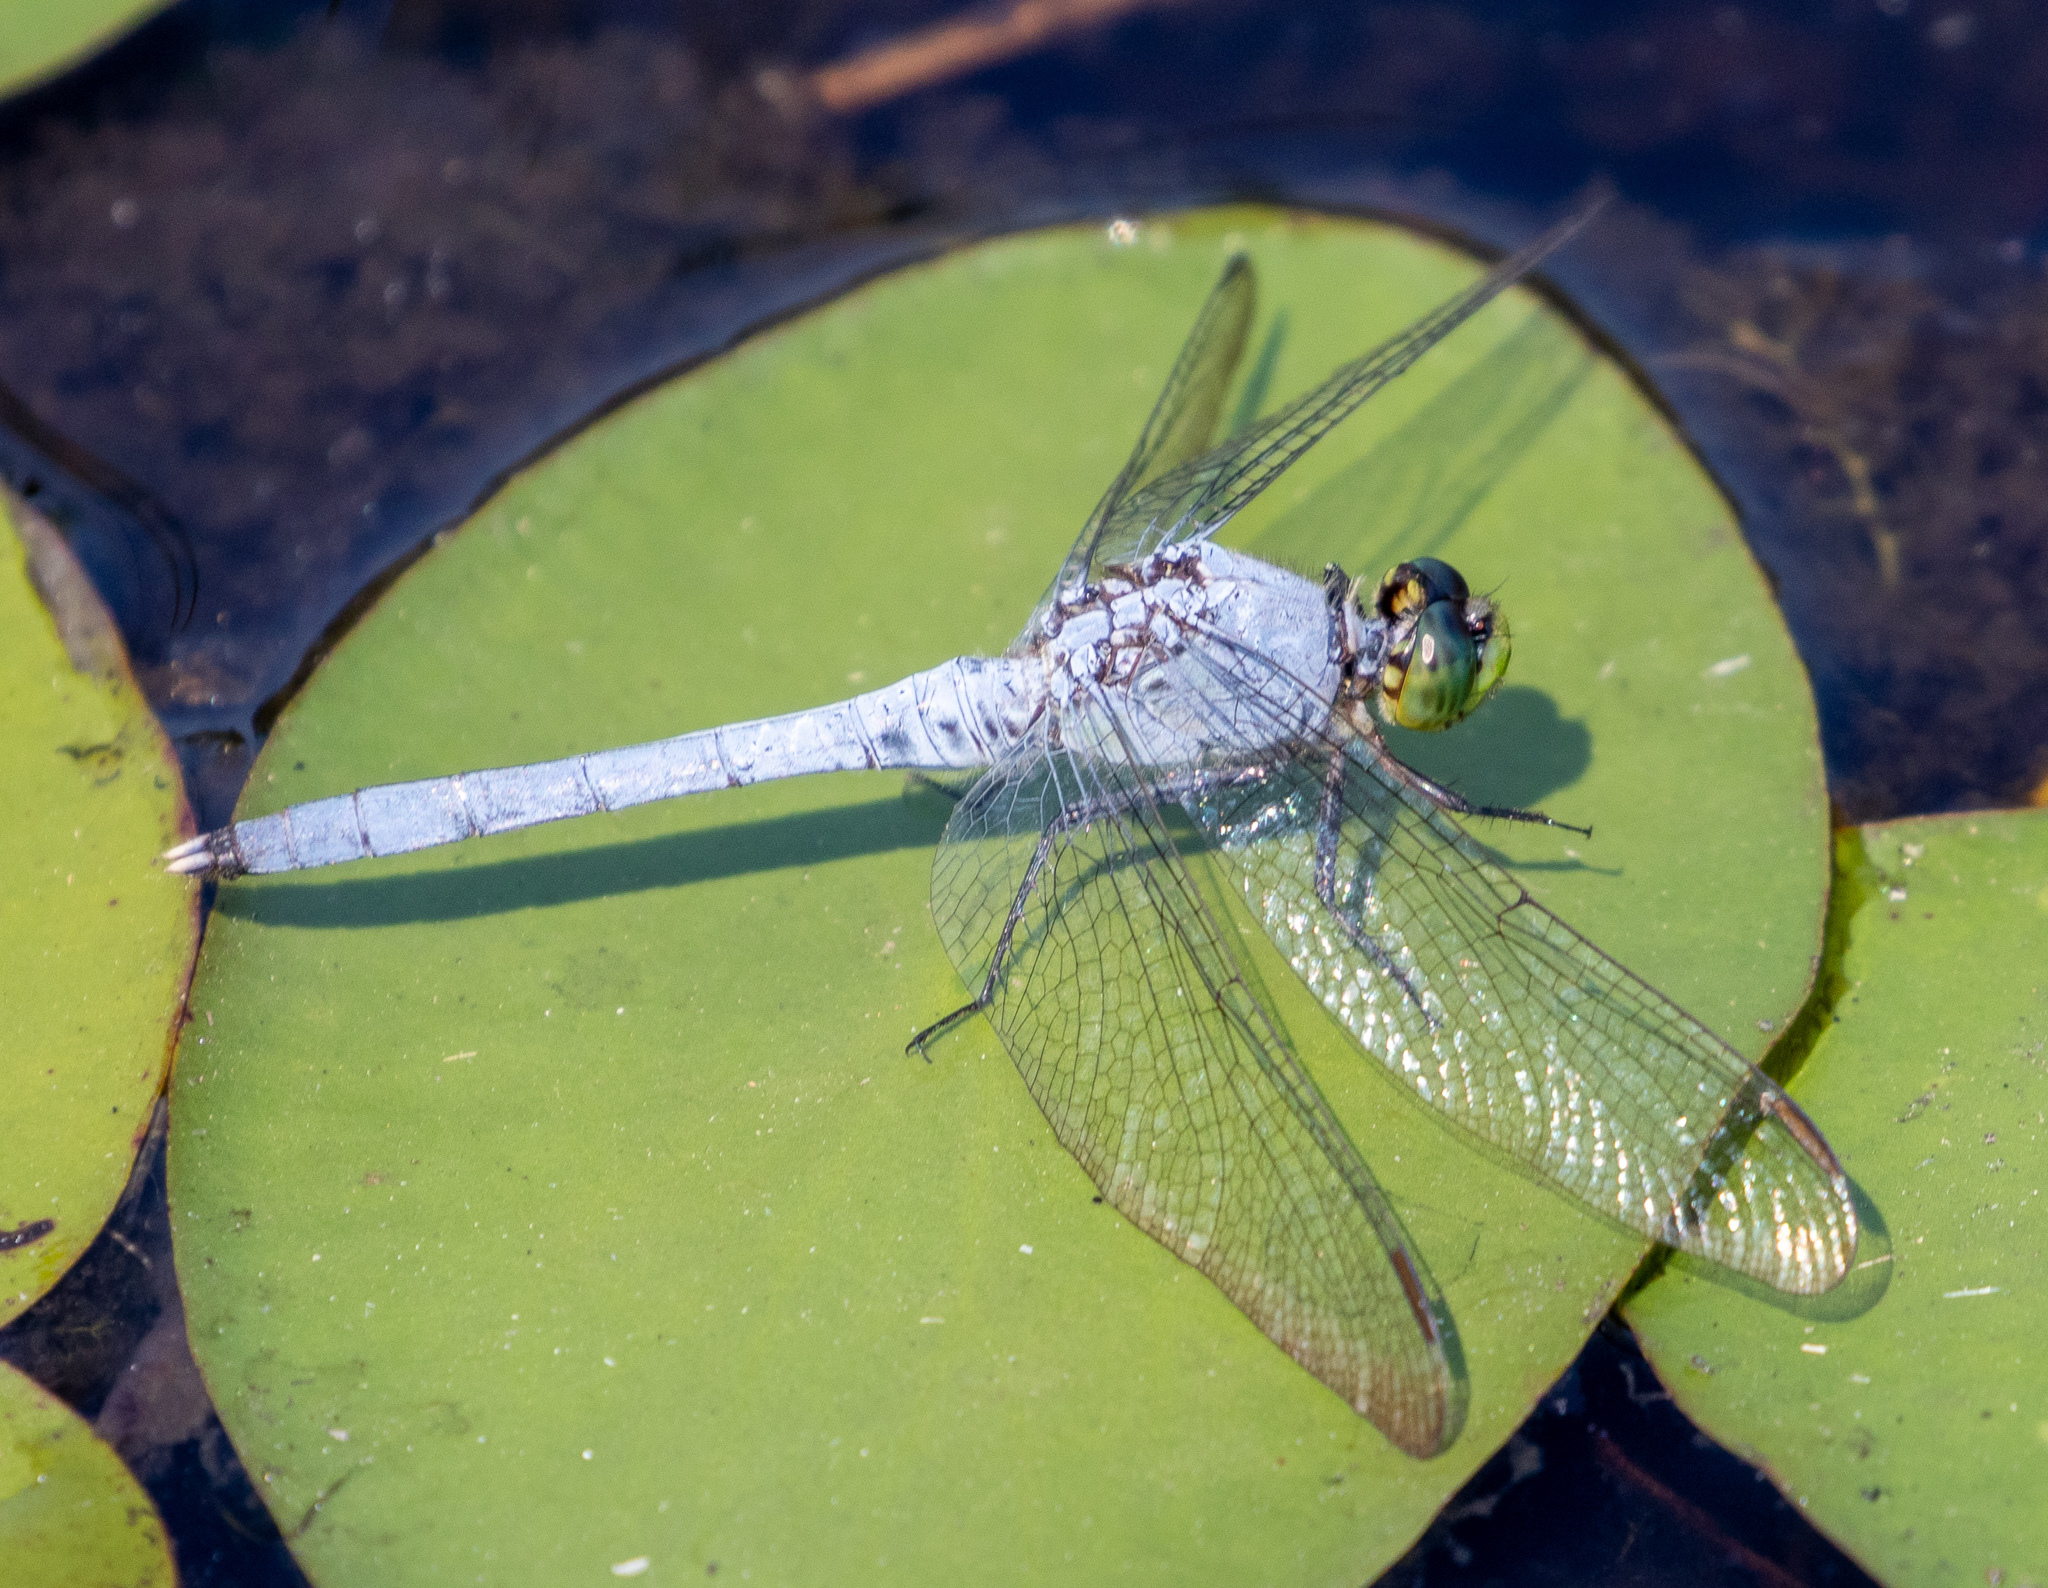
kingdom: Animalia
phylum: Arthropoda
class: Insecta
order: Odonata
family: Libellulidae
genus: Erythemis
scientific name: Erythemis simplicicollis
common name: Eastern pondhawk
